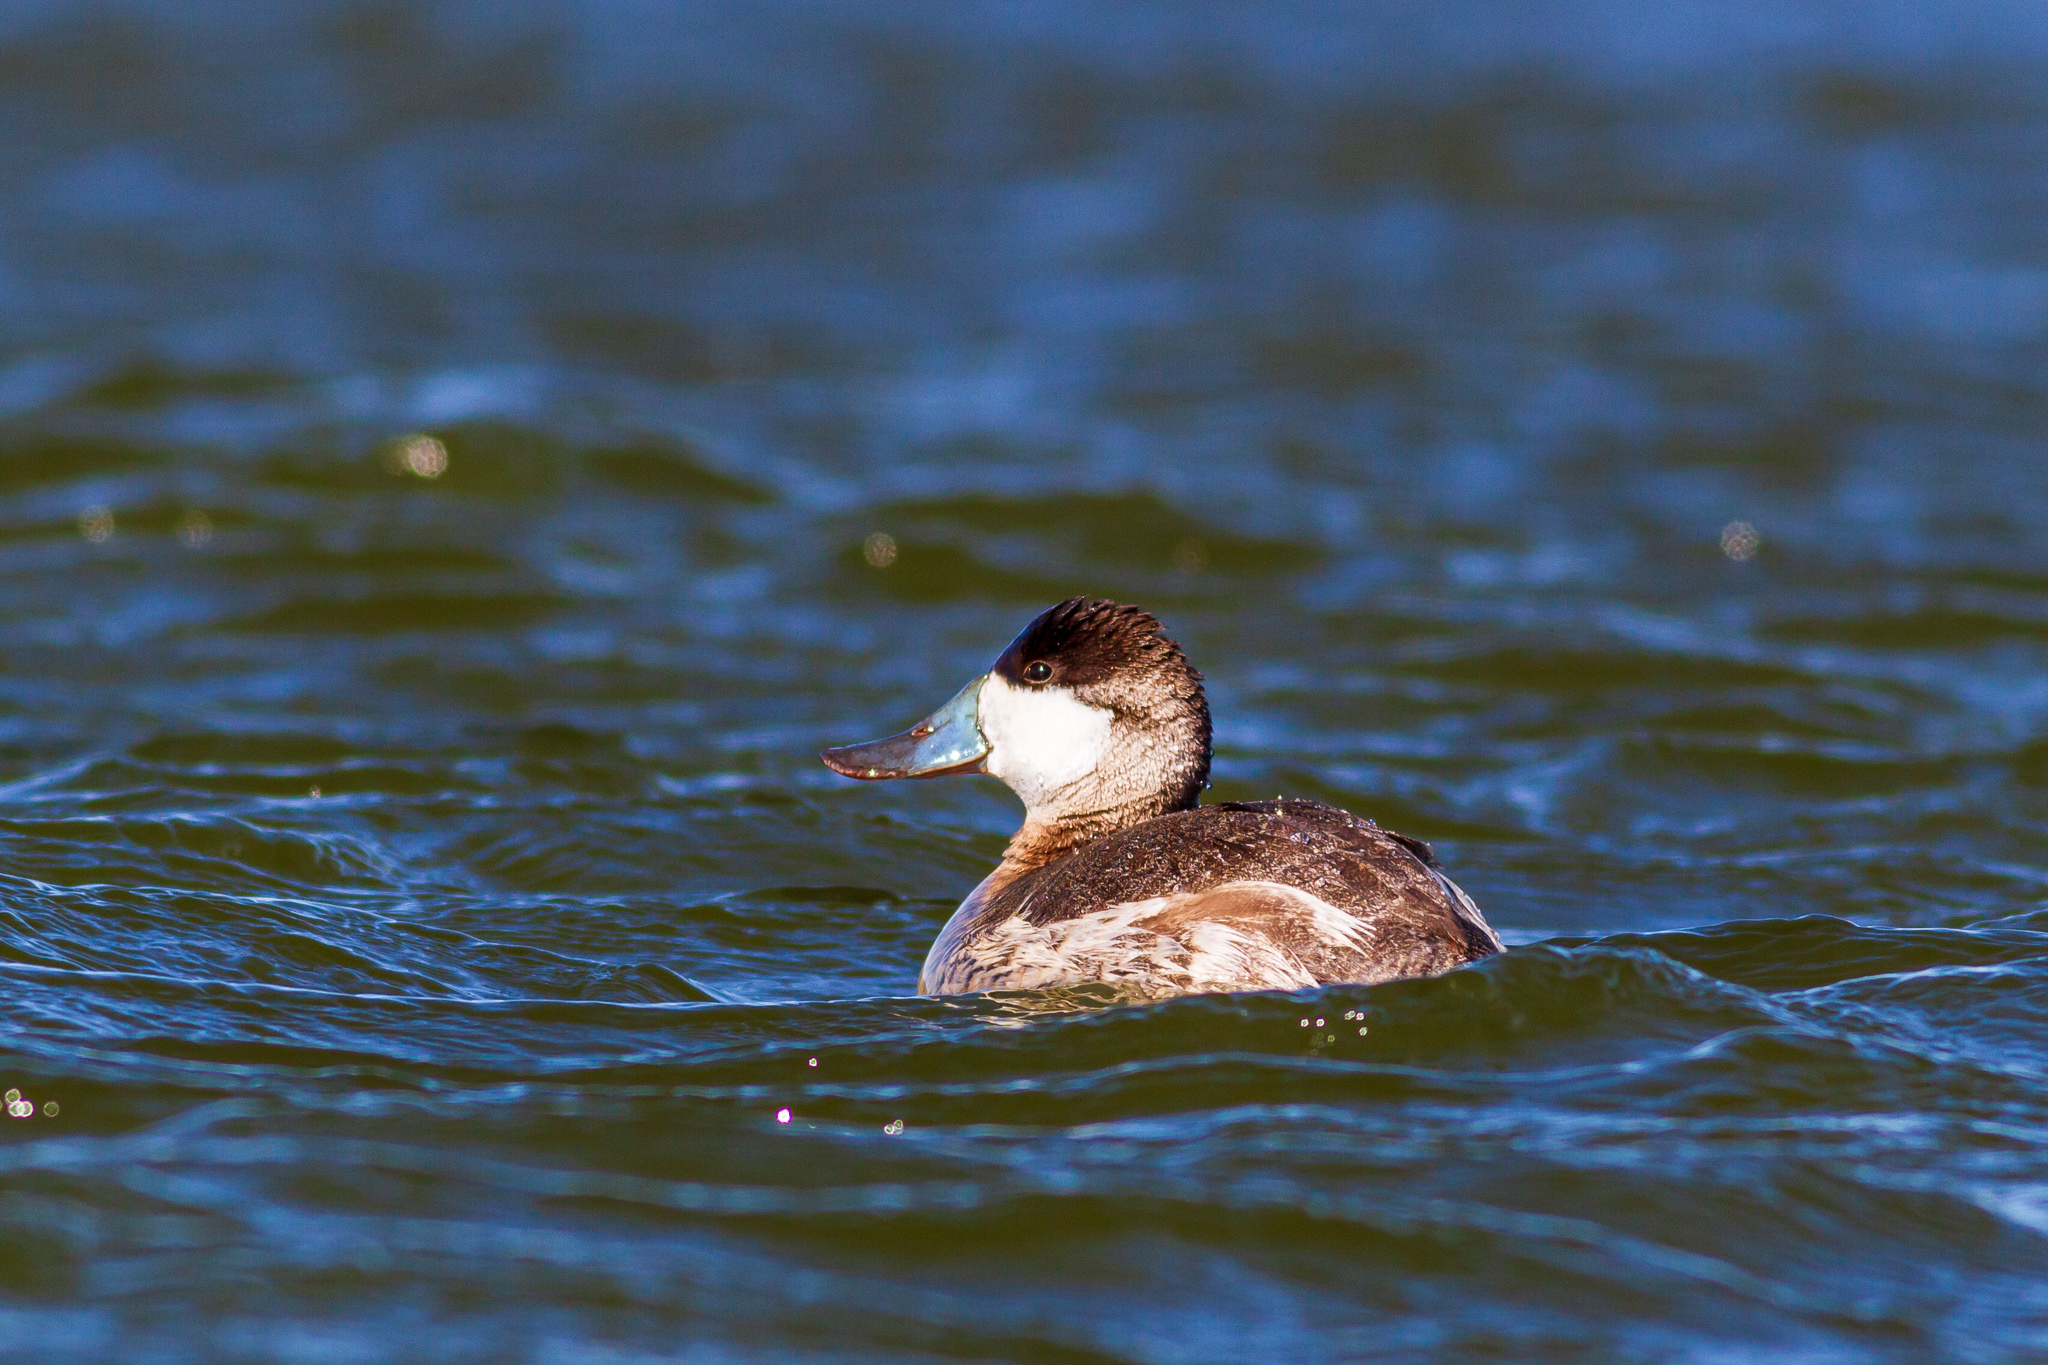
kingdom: Animalia
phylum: Chordata
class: Aves
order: Anseriformes
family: Anatidae
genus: Oxyura
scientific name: Oxyura jamaicensis
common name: Ruddy duck
